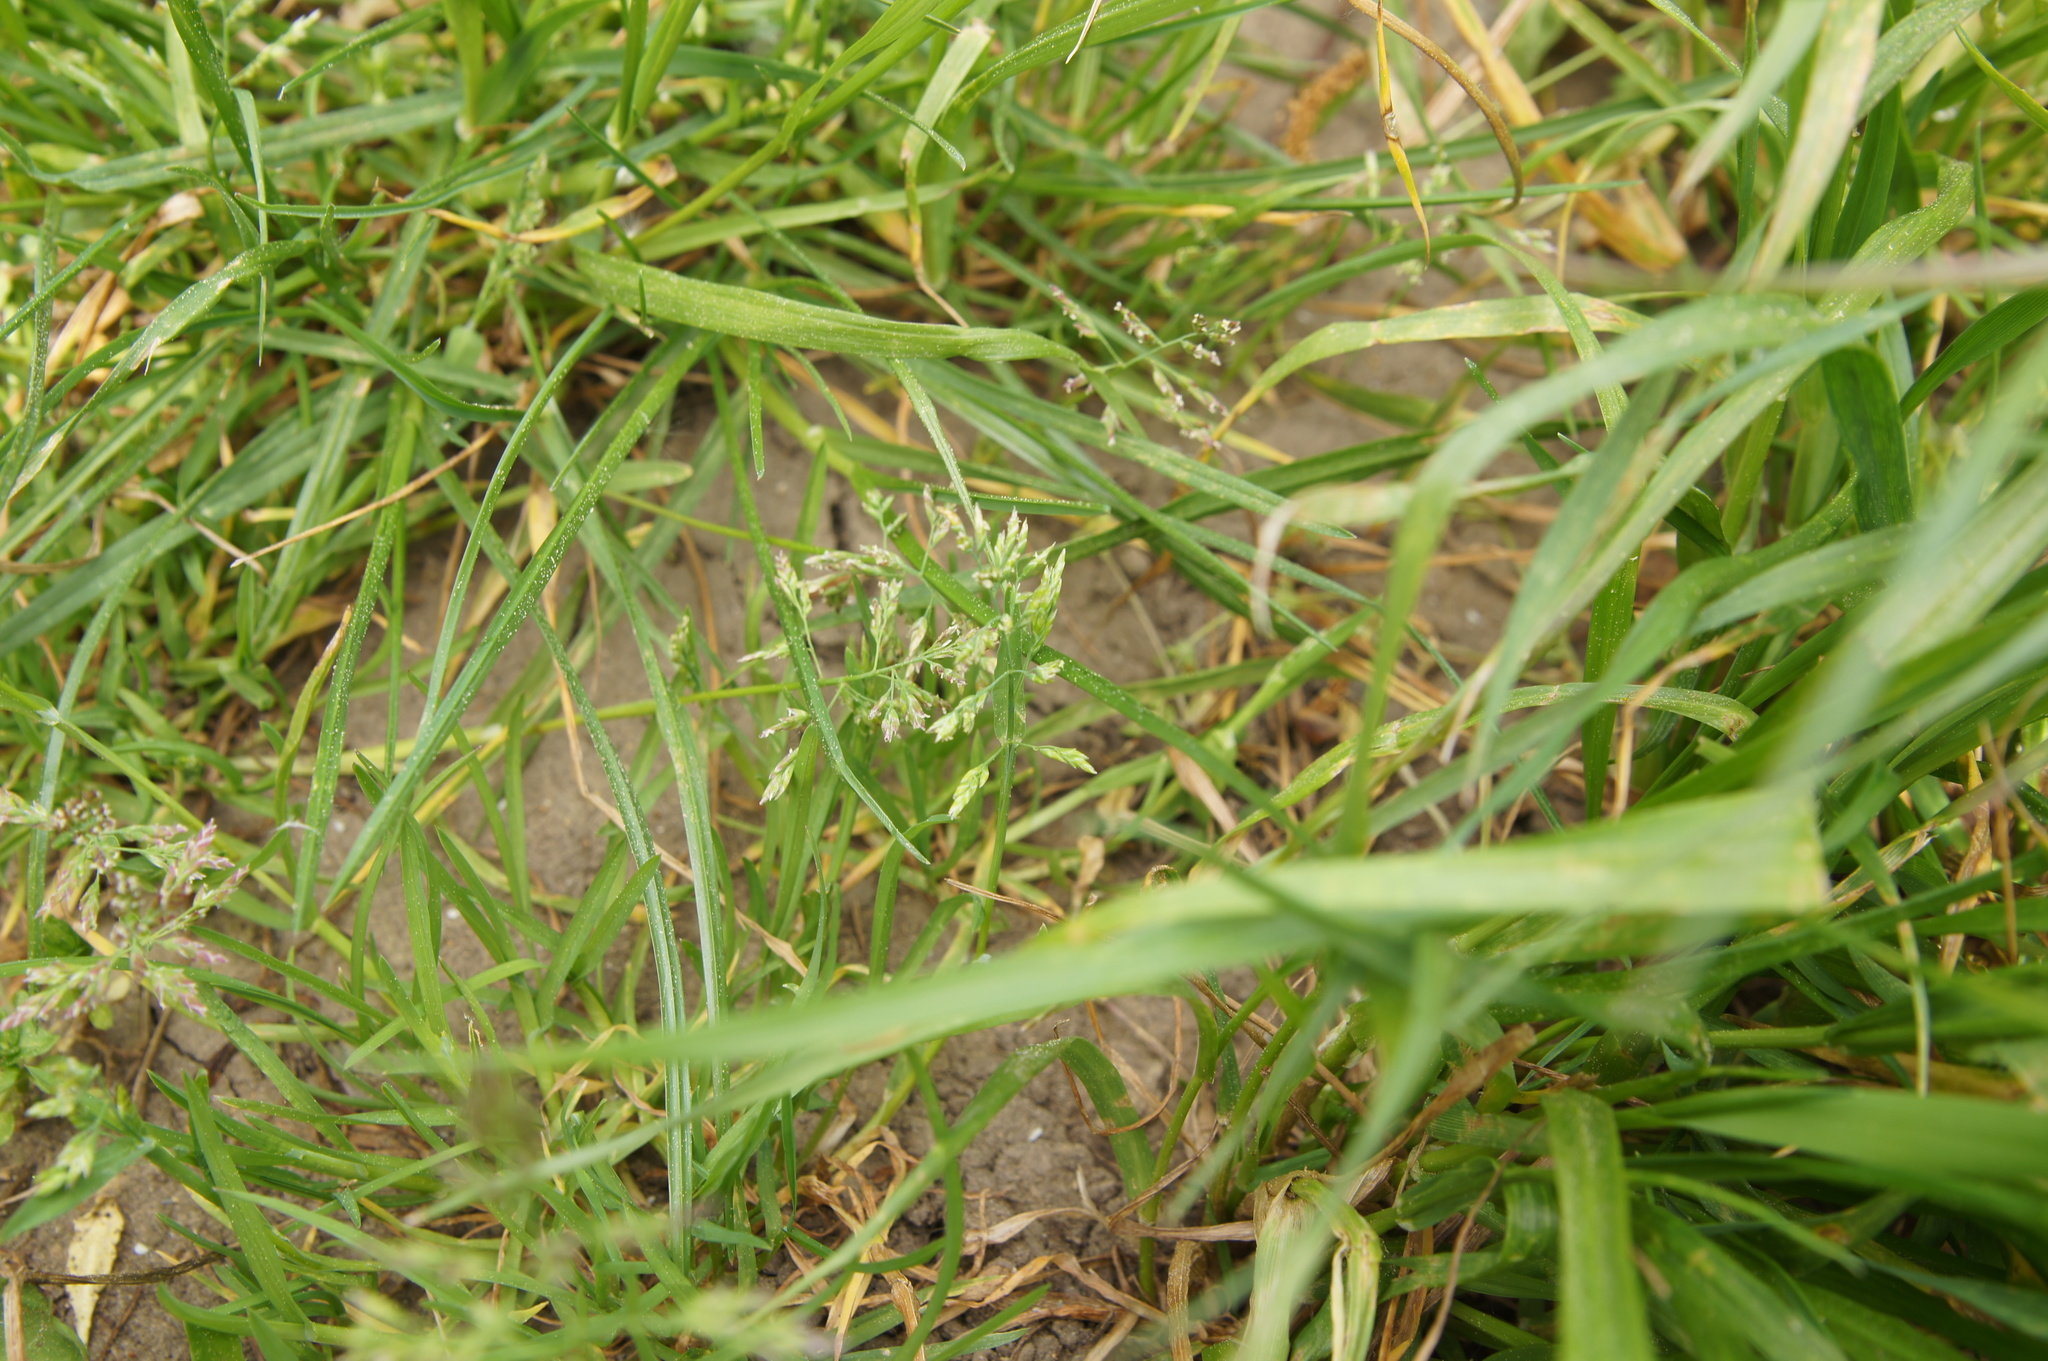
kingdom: Plantae
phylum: Tracheophyta
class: Liliopsida
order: Poales
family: Poaceae
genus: Poa
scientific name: Poa annua
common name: Annual bluegrass
